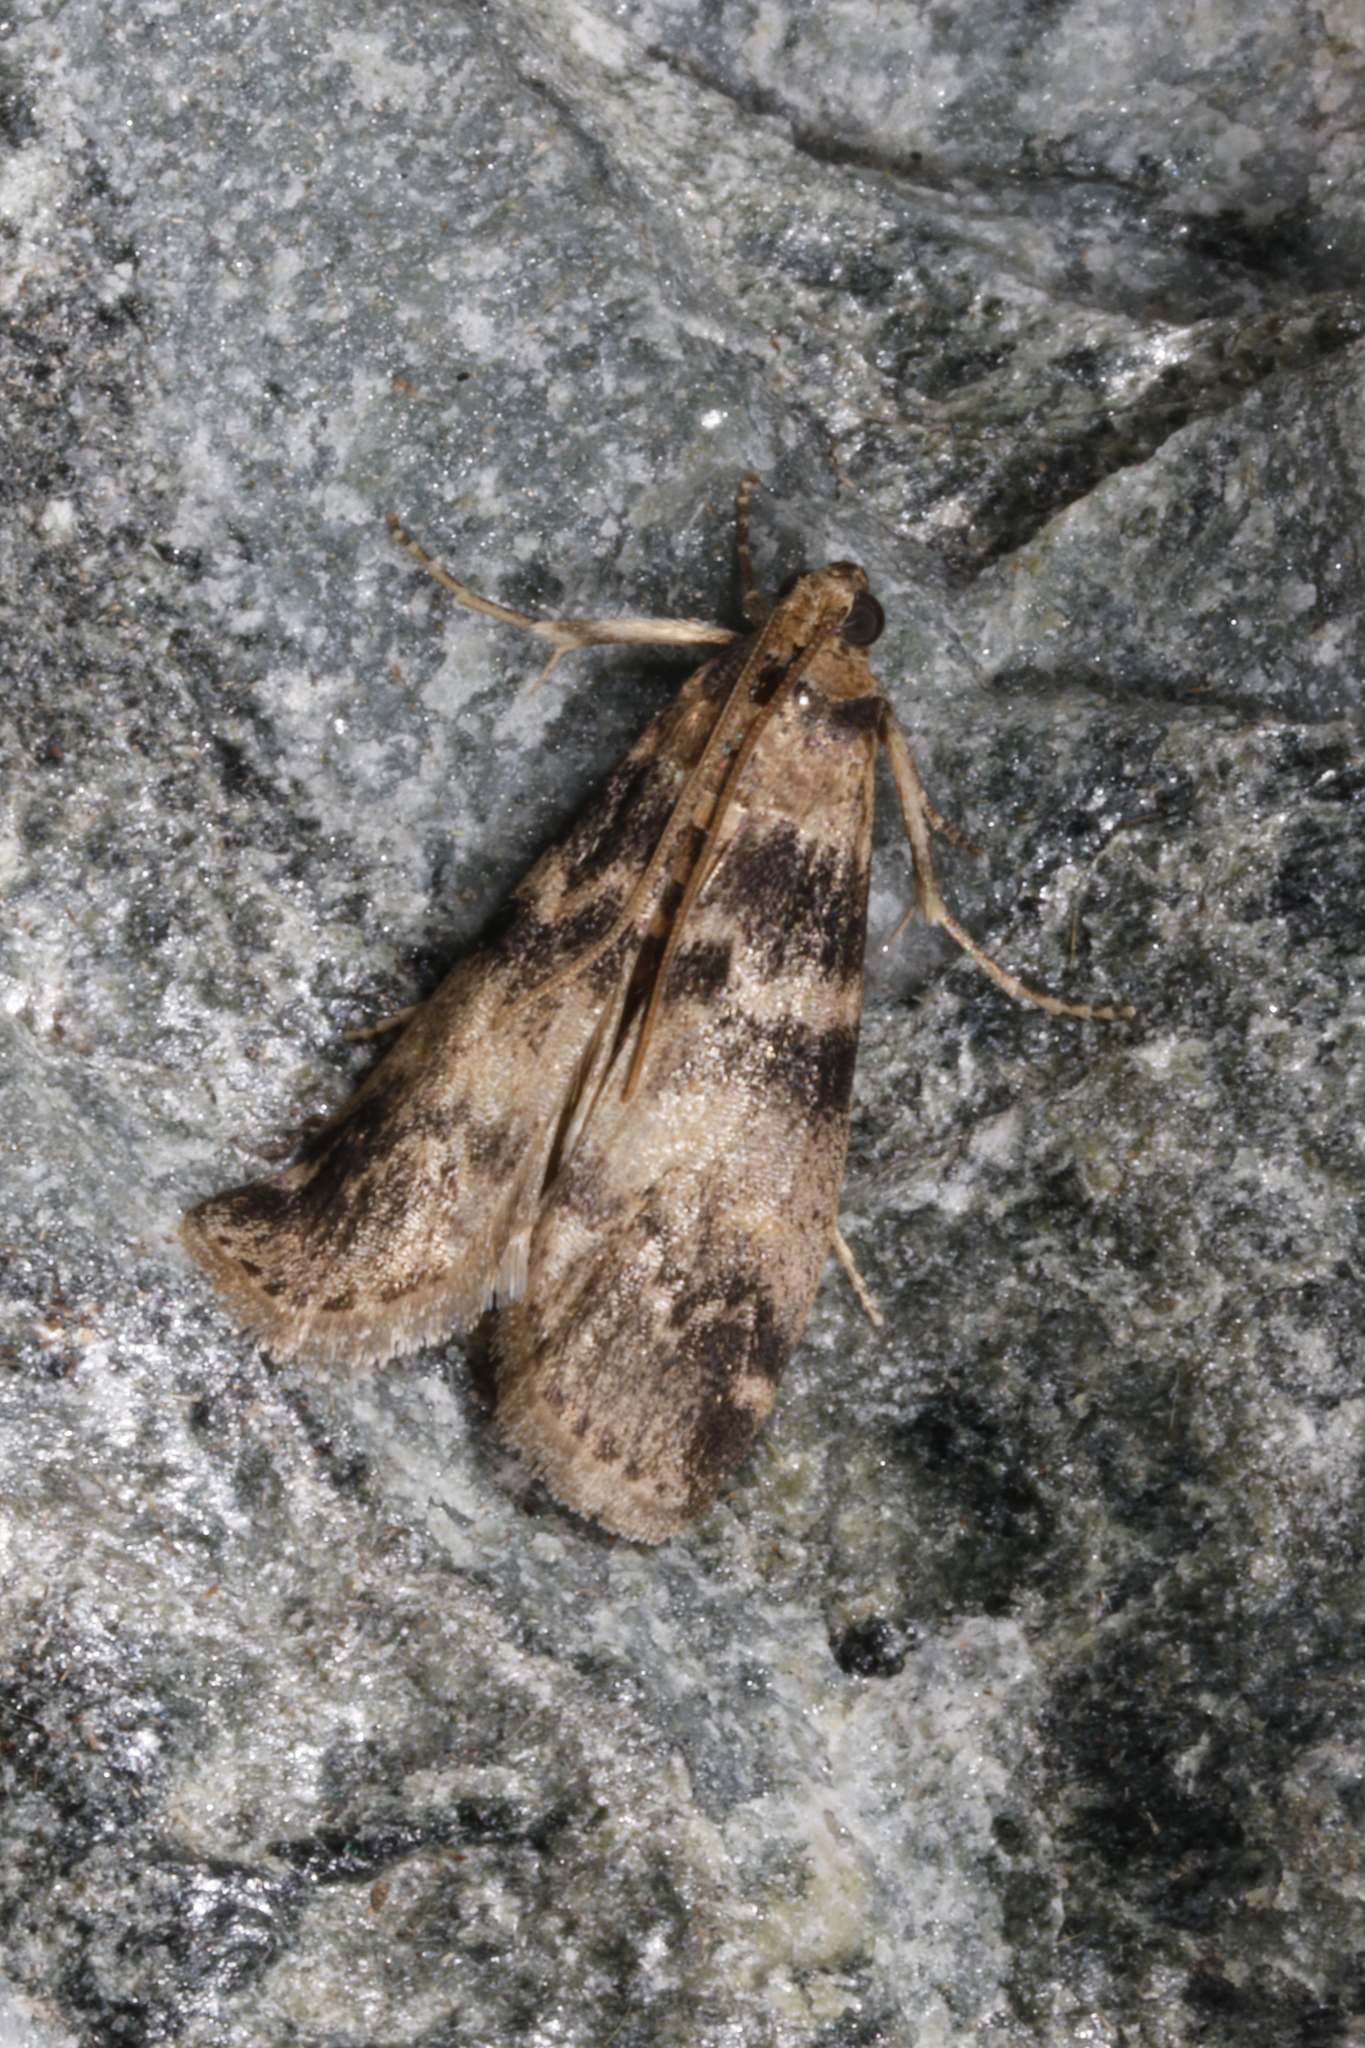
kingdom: Animalia
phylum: Arthropoda
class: Insecta
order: Lepidoptera
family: Pyralidae
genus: Euzophera
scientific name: Euzophera pinguis
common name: Ash-bark knot-horn
